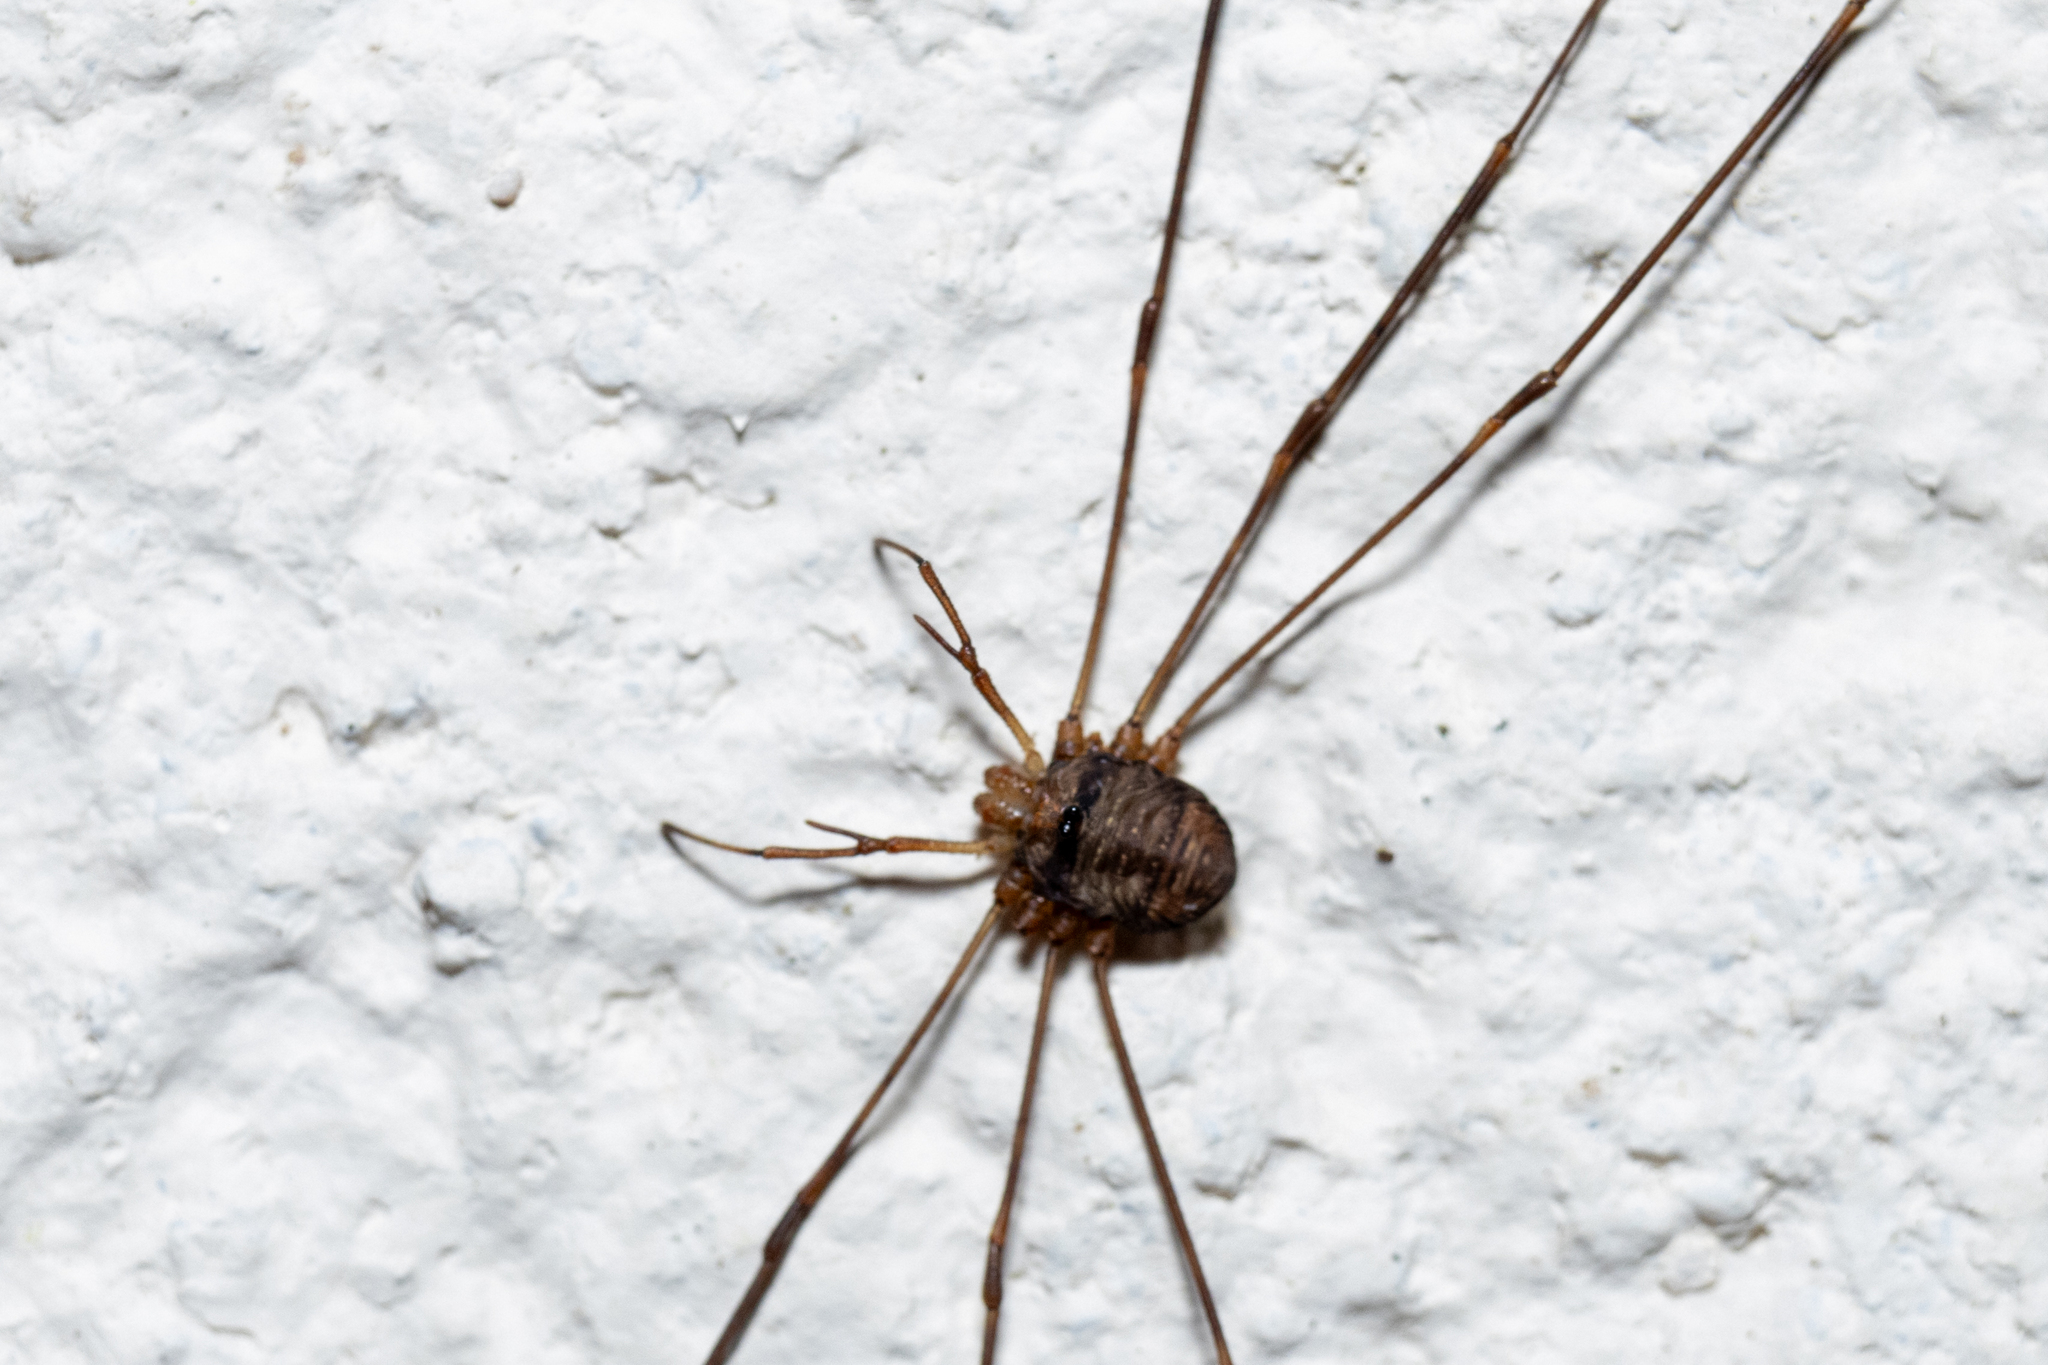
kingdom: Animalia
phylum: Arthropoda
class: Arachnida
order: Opiliones
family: Phalangiidae
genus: Dicranopalpus
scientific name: Dicranopalpus ramosus
